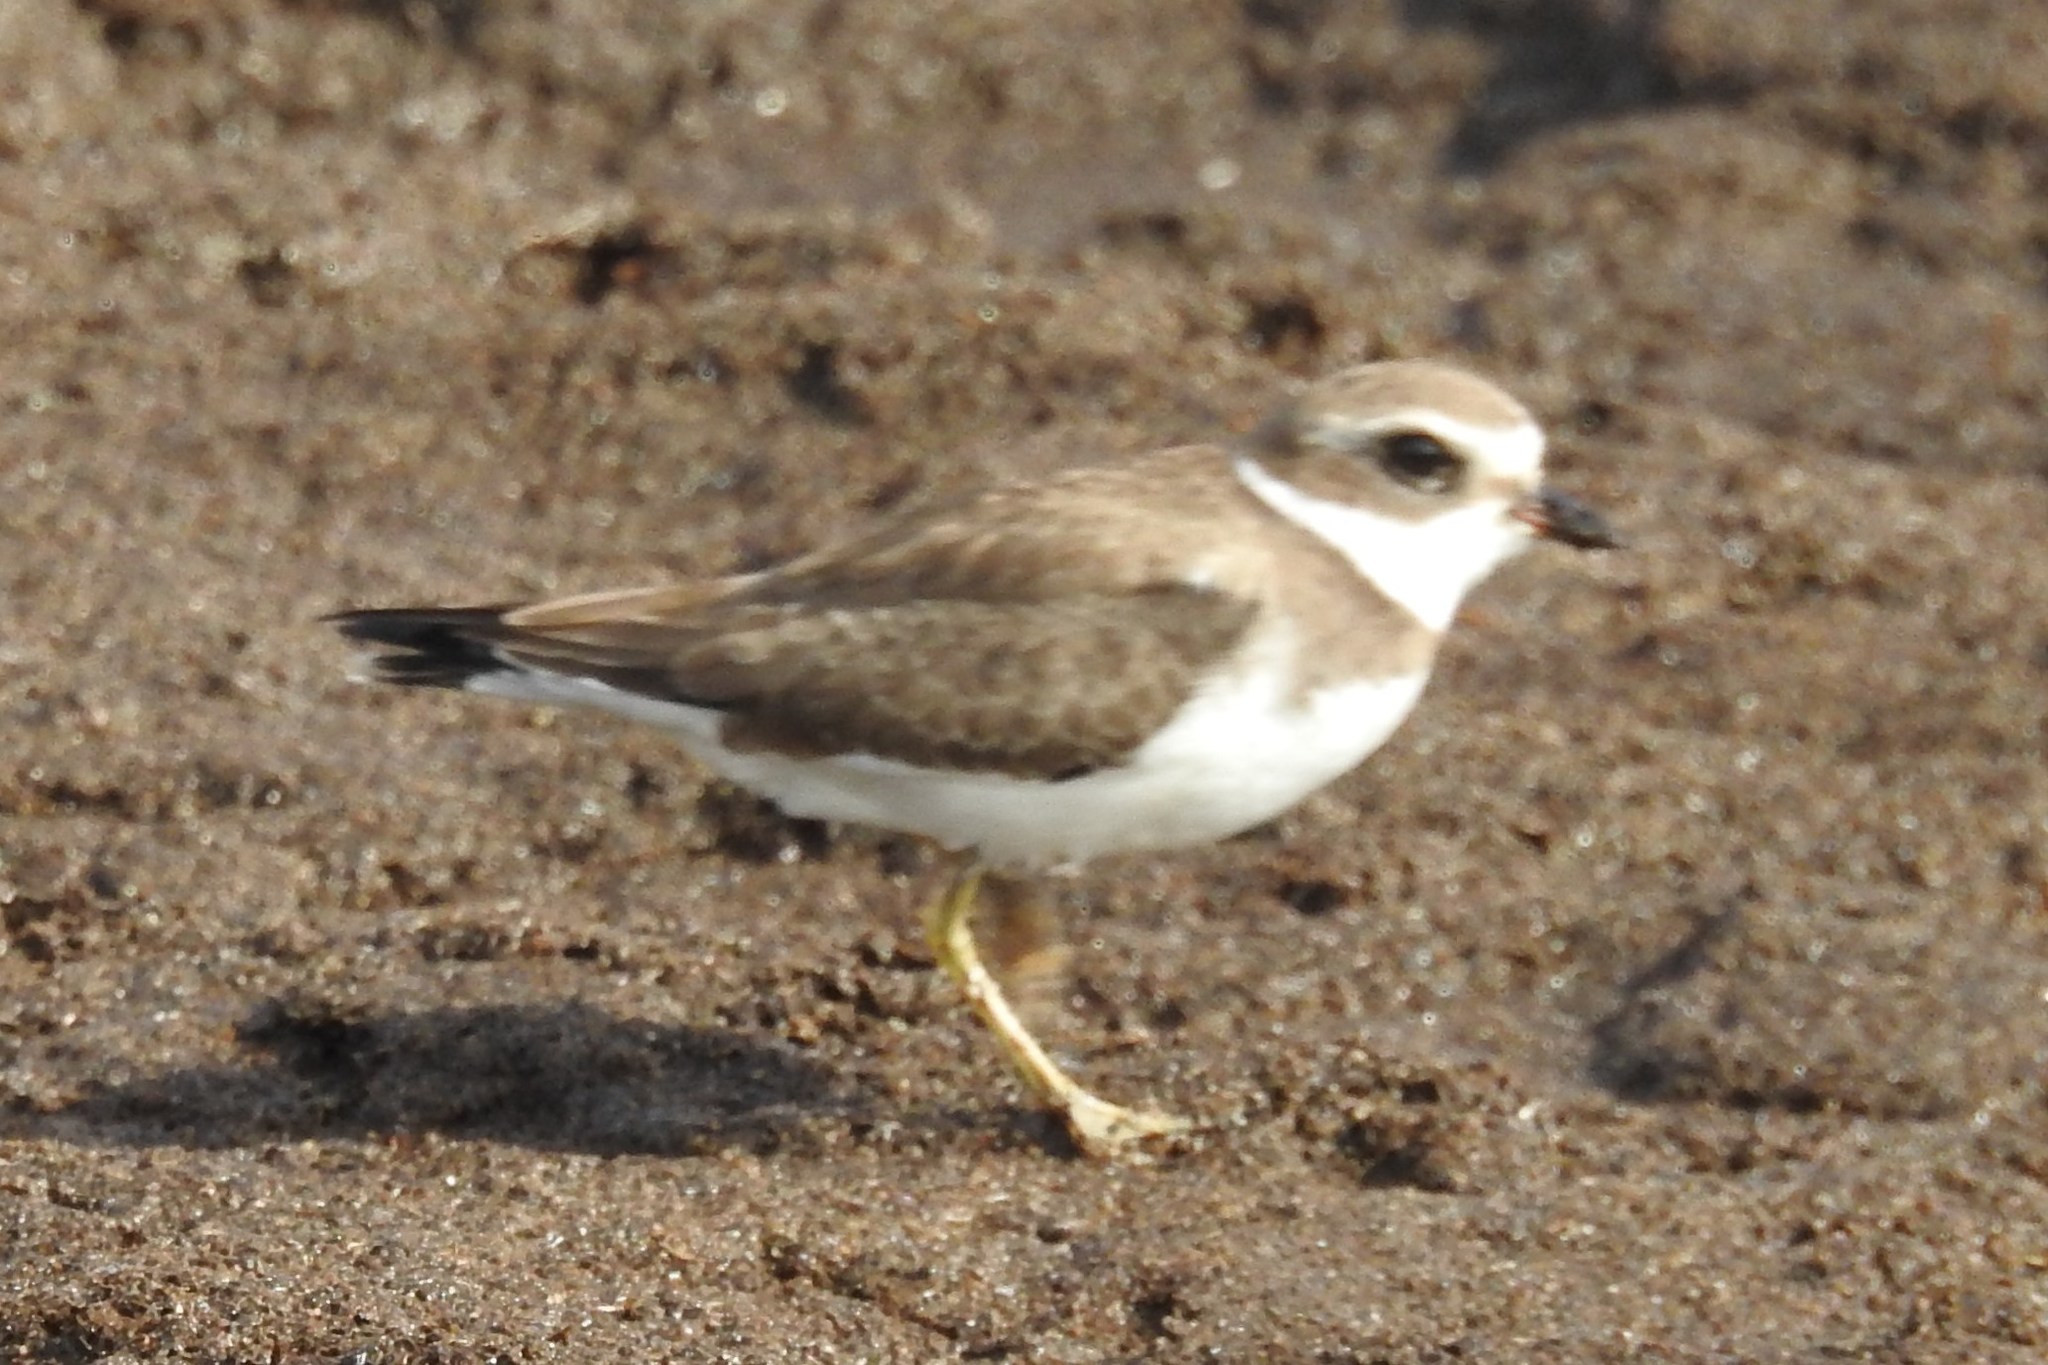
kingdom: Animalia
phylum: Chordata
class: Aves
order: Charadriiformes
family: Charadriidae
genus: Charadrius
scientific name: Charadrius semipalmatus
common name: Semipalmated plover
